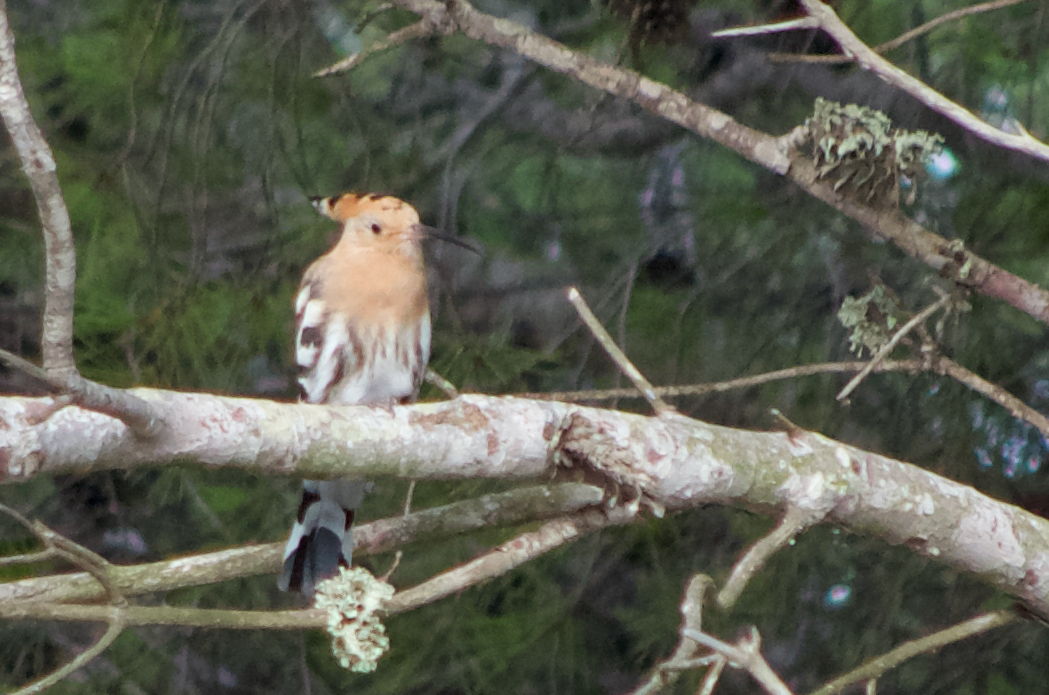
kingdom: Animalia
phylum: Chordata
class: Aves
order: Bucerotiformes
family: Upupidae
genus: Upupa
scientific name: Upupa epops
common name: Eurasian hoopoe
